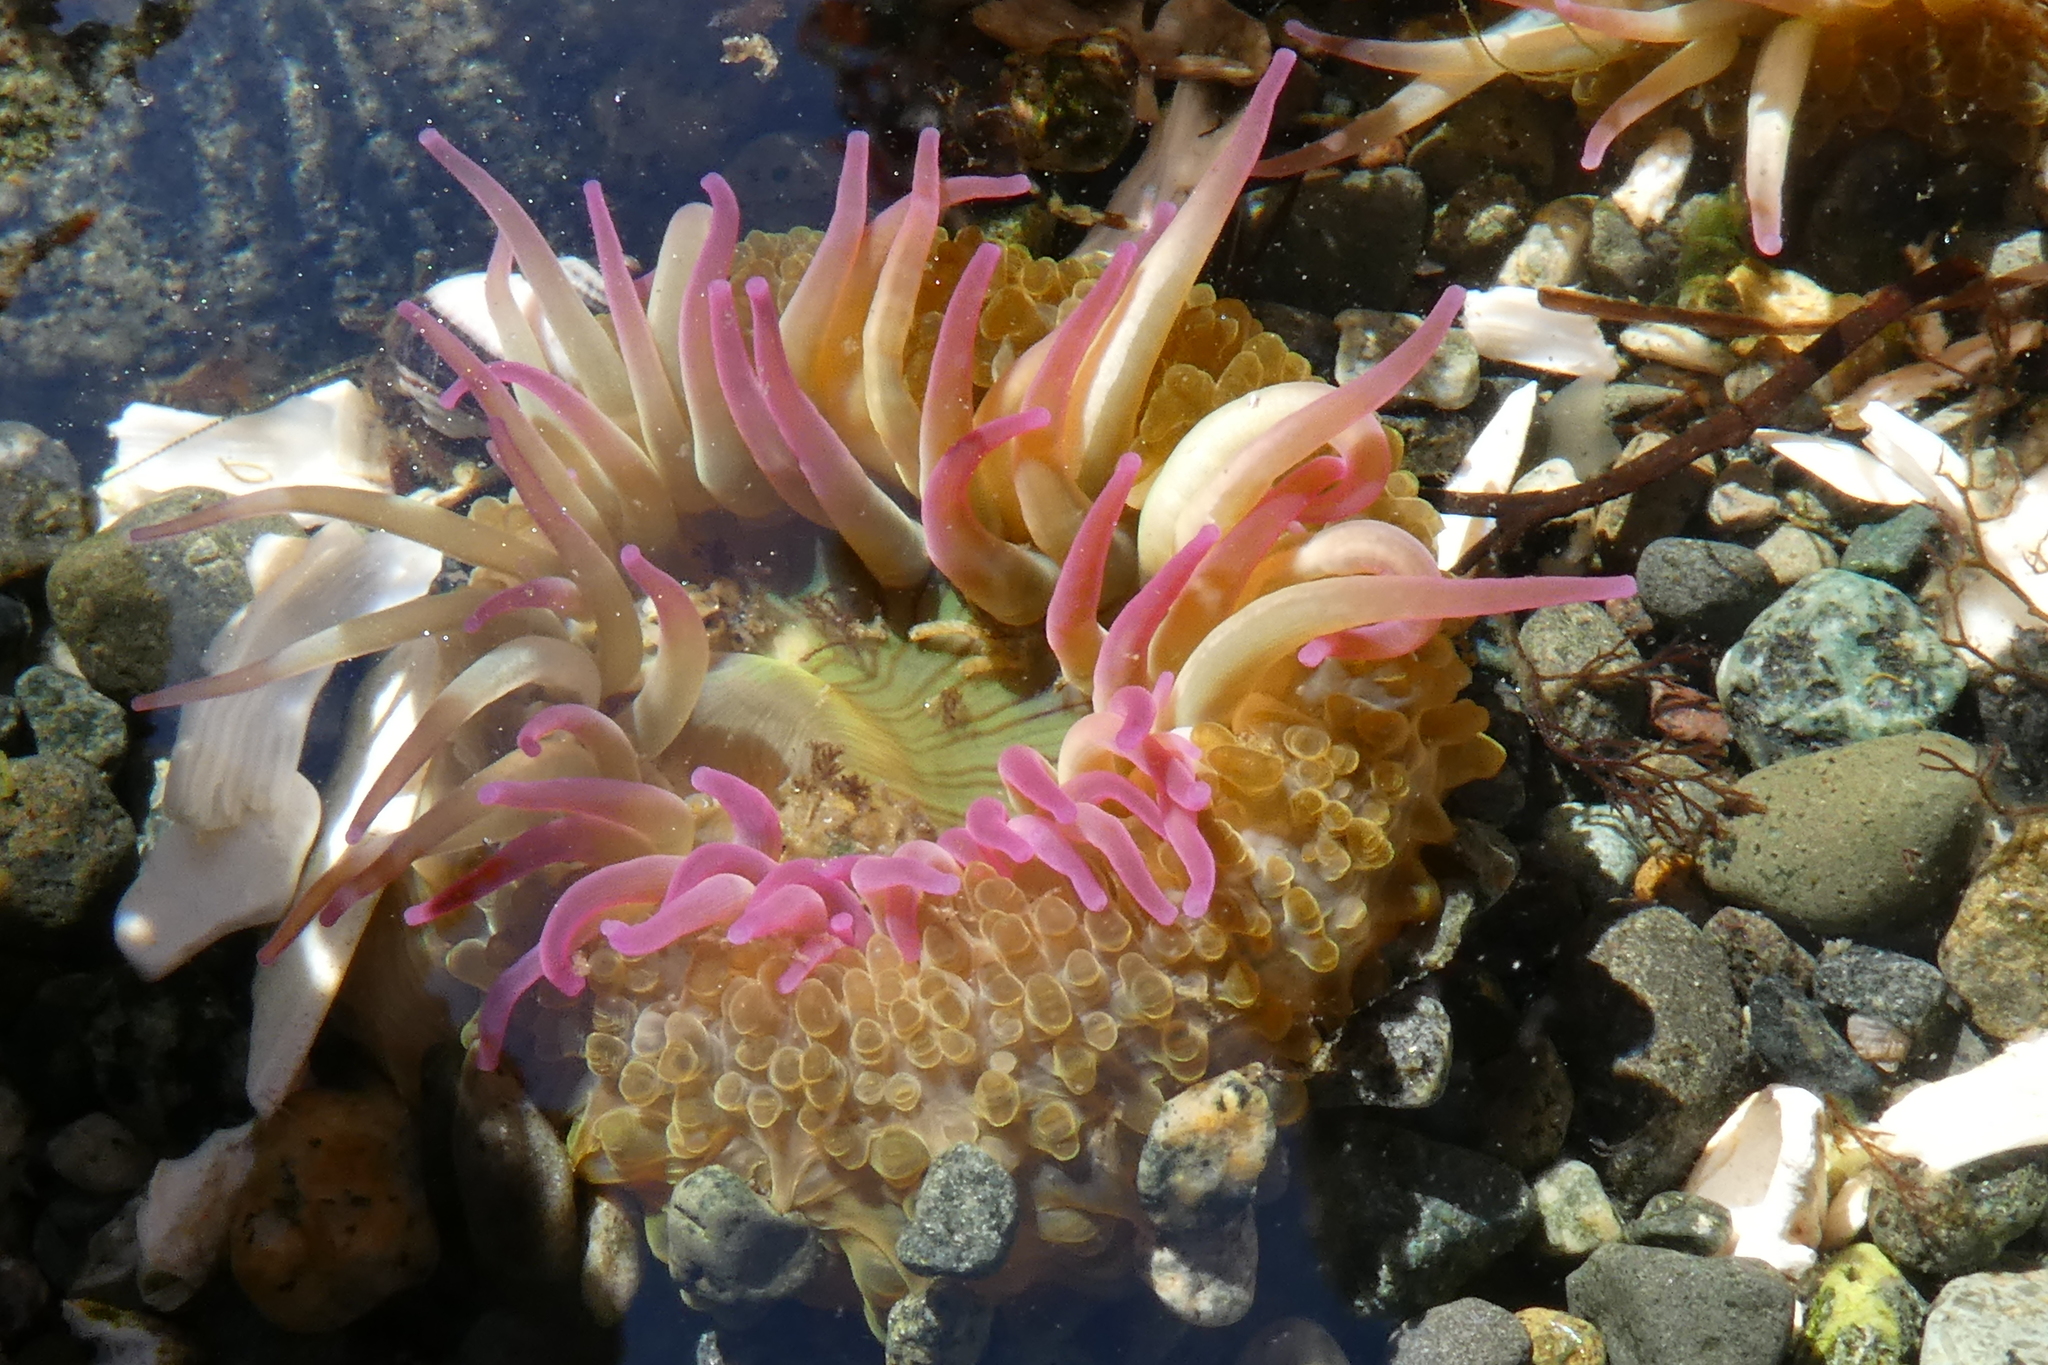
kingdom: Animalia
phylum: Cnidaria
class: Anthozoa
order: Actiniaria
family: Actiniidae
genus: Anthopleura
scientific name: Anthopleura elegantissima
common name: Clonal anemone
